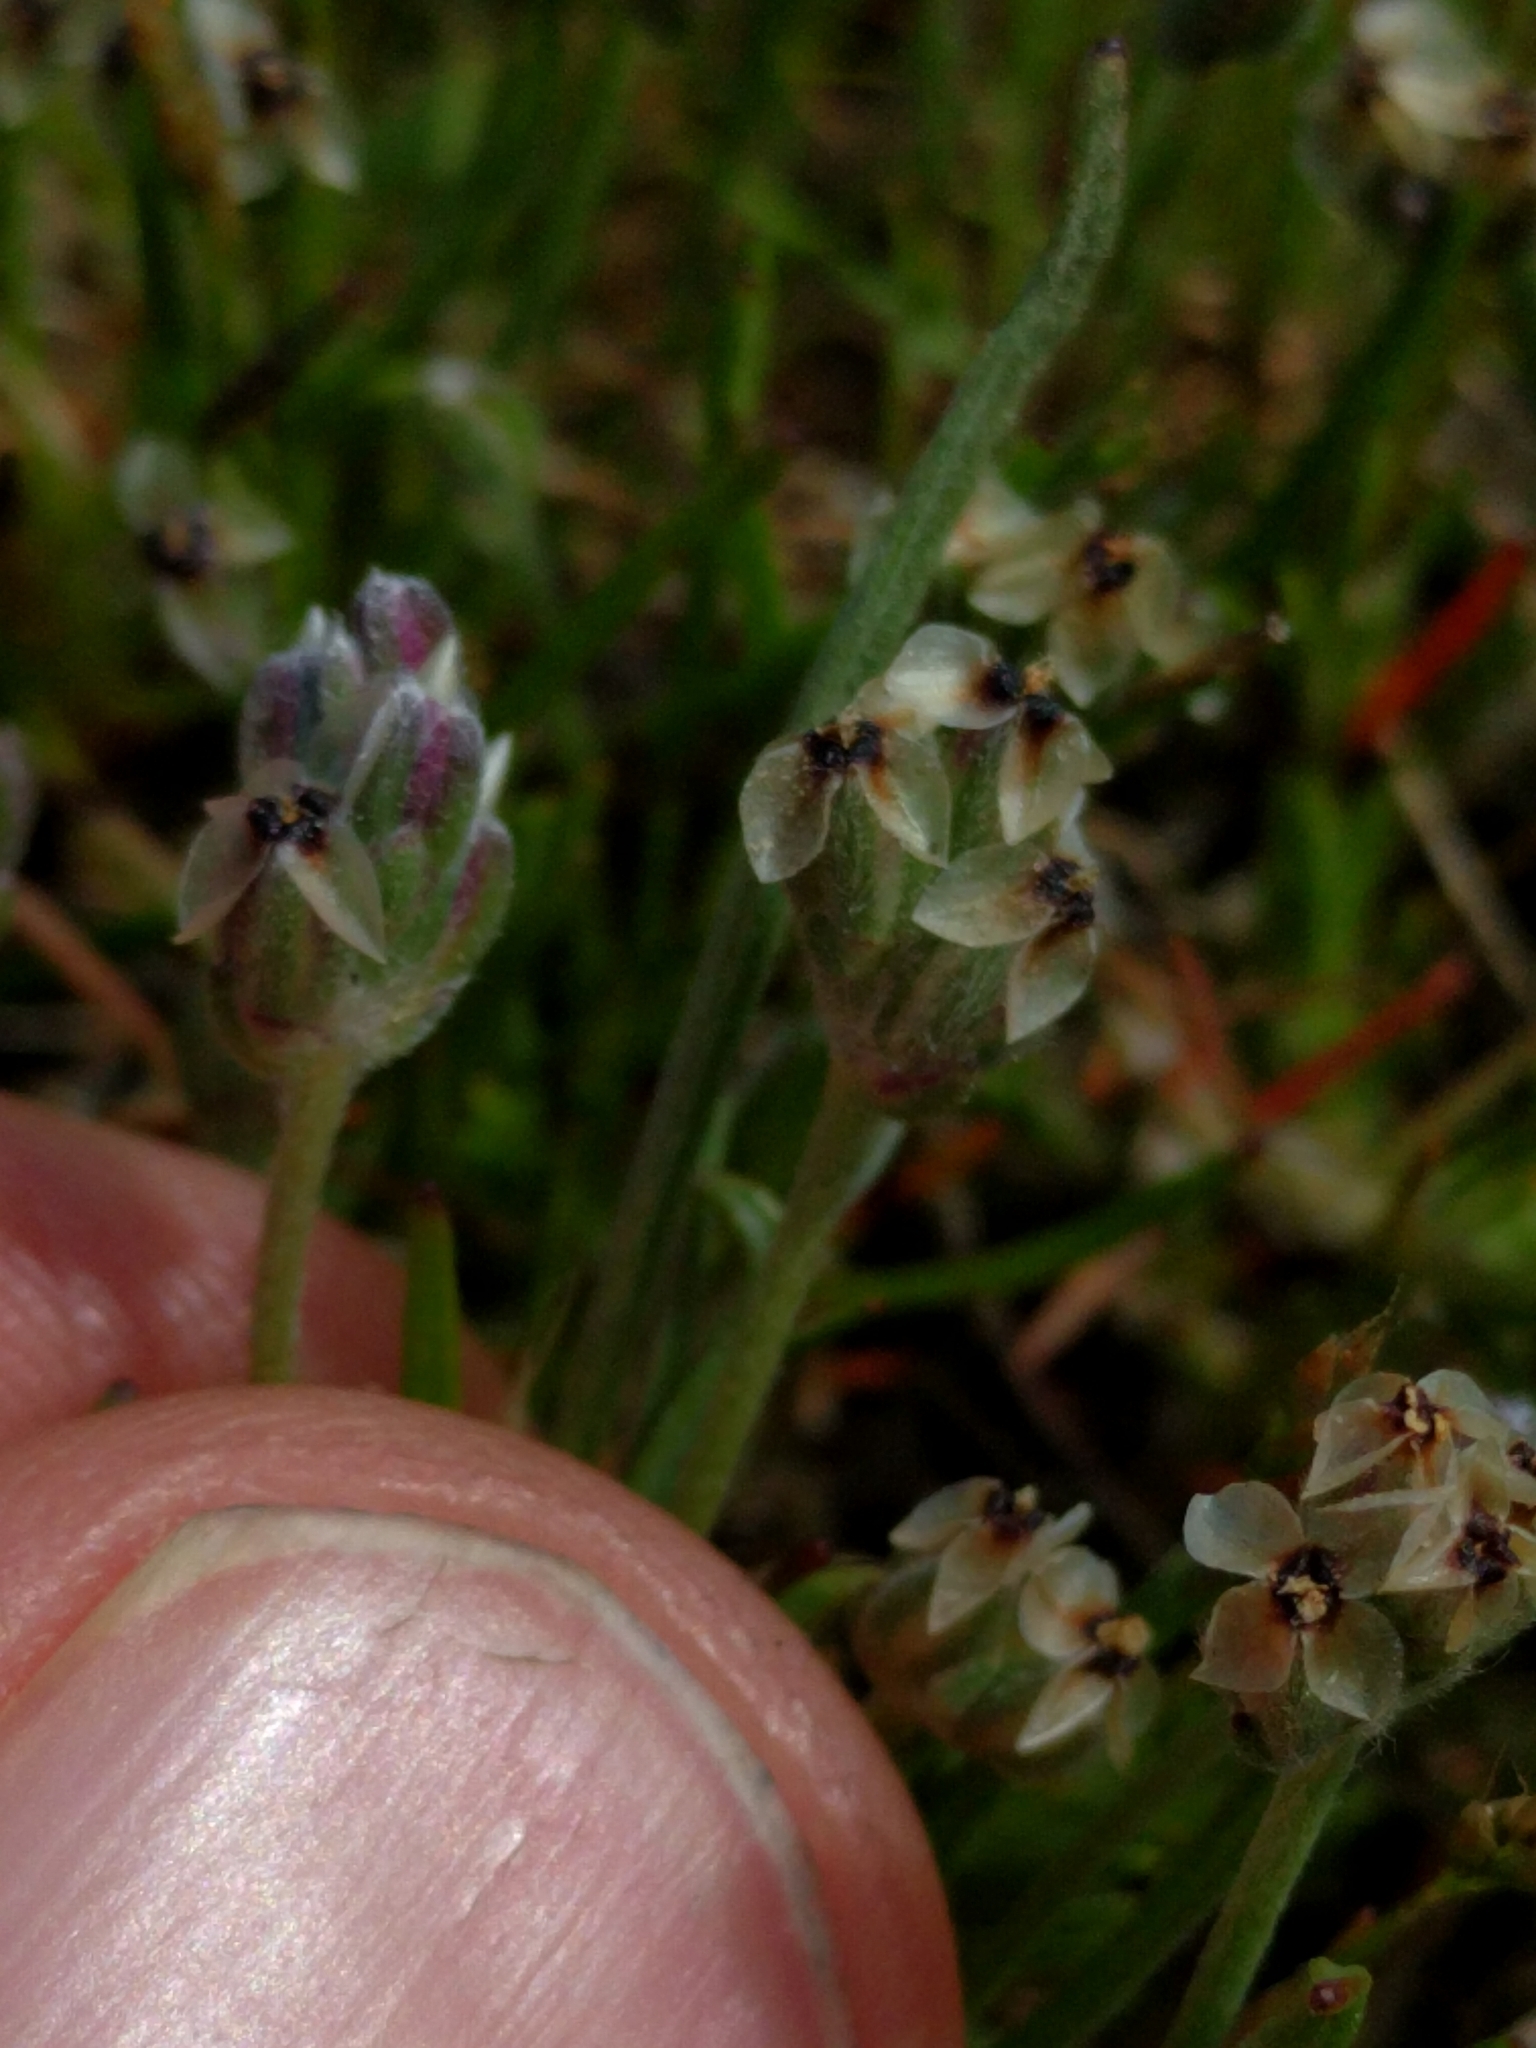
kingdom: Plantae
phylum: Tracheophyta
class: Magnoliopsida
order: Lamiales
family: Plantaginaceae
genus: Plantago
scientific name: Plantago erecta
